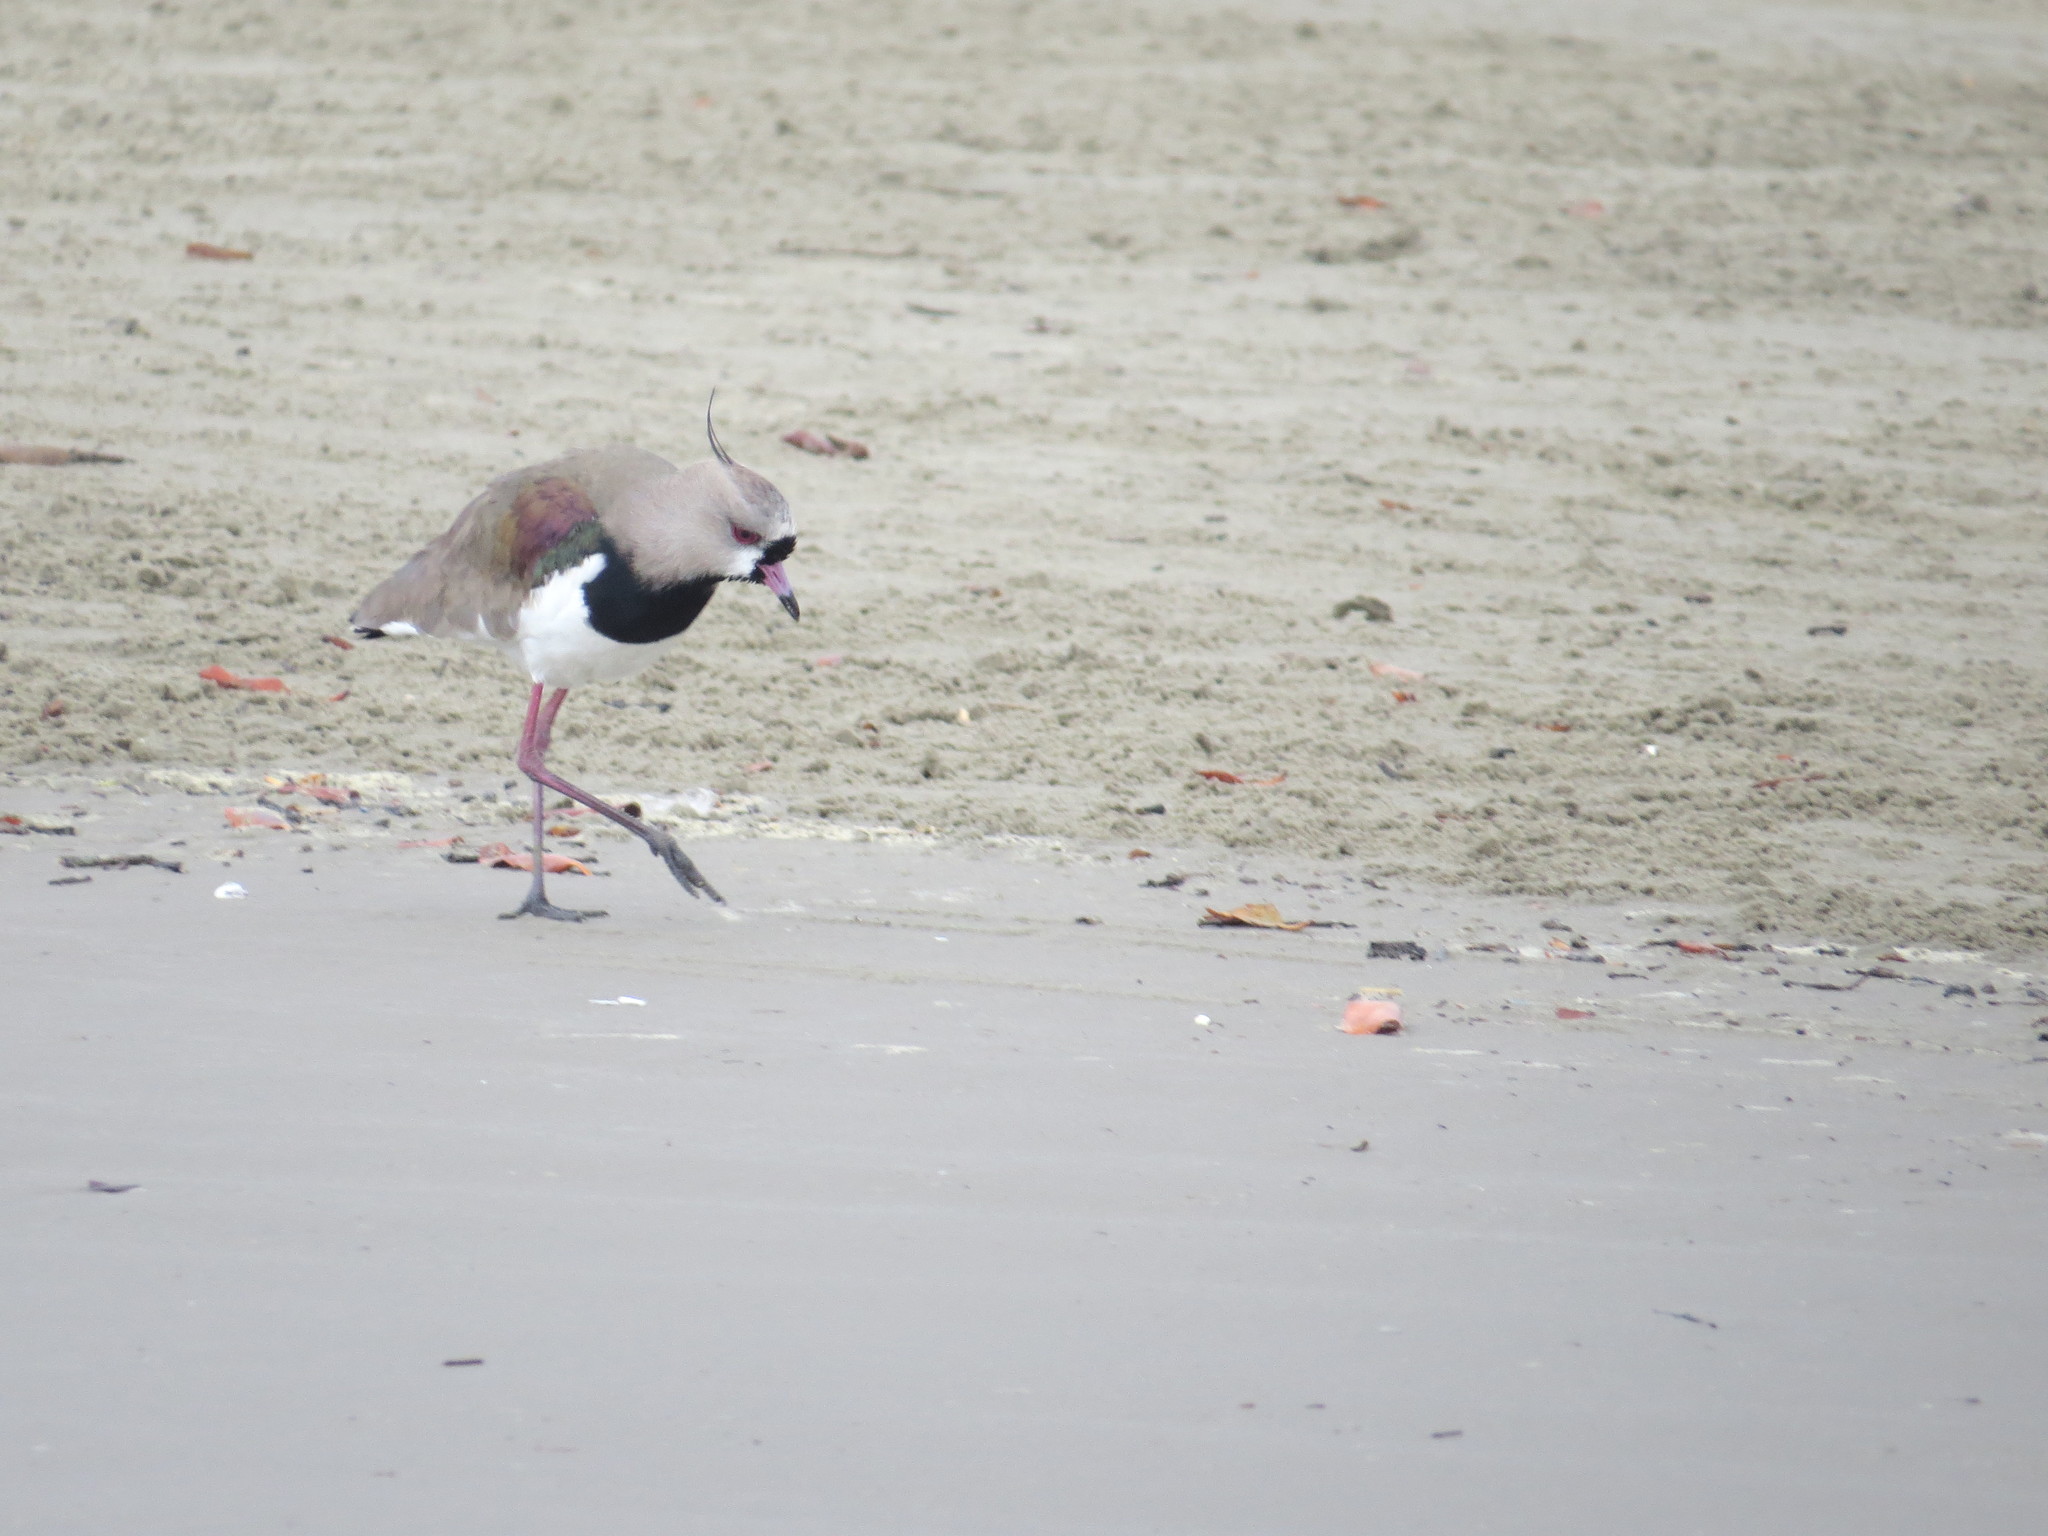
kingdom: Animalia
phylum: Chordata
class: Aves
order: Charadriiformes
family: Charadriidae
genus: Vanellus
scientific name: Vanellus chilensis
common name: Southern lapwing
